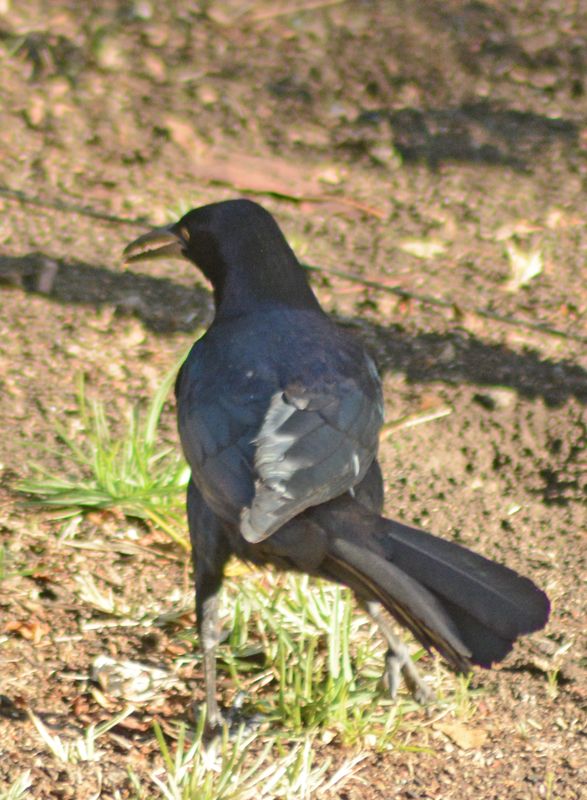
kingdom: Animalia
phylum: Chordata
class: Aves
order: Passeriformes
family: Icteridae
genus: Quiscalus
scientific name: Quiscalus mexicanus
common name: Great-tailed grackle
